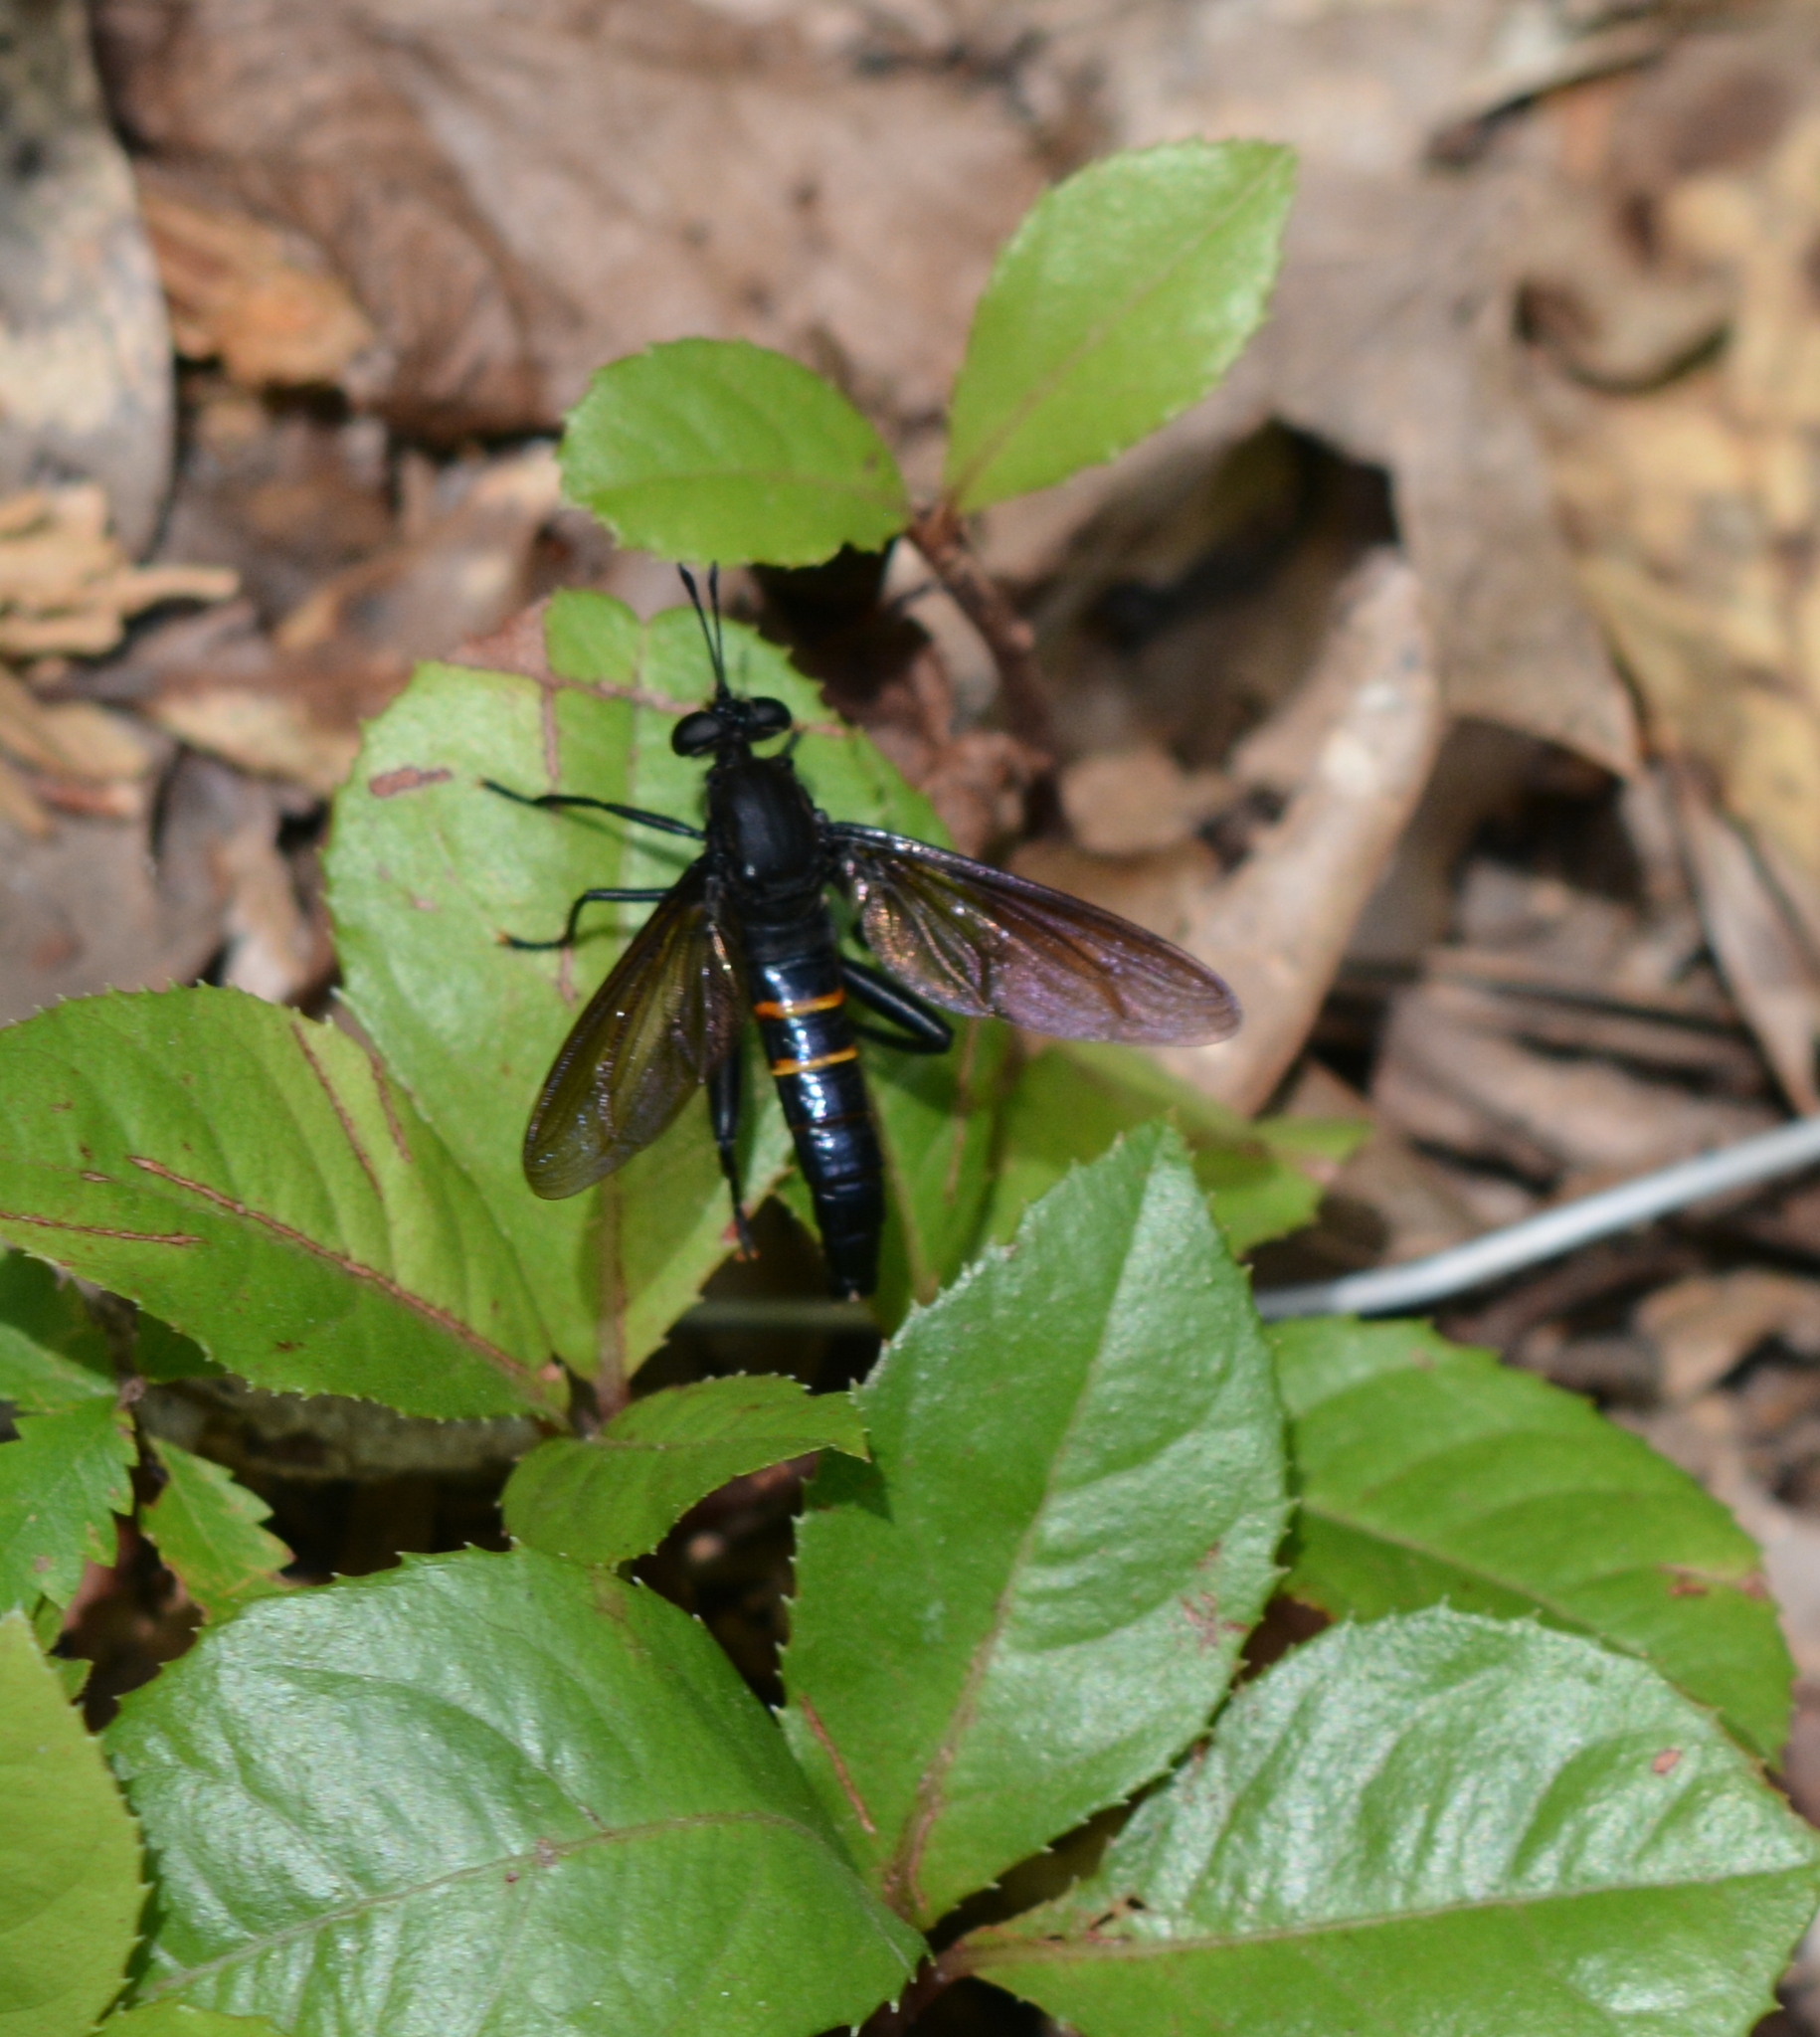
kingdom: Animalia
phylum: Arthropoda
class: Insecta
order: Diptera
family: Mydidae
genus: Mydas
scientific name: Mydas fulvifrons
